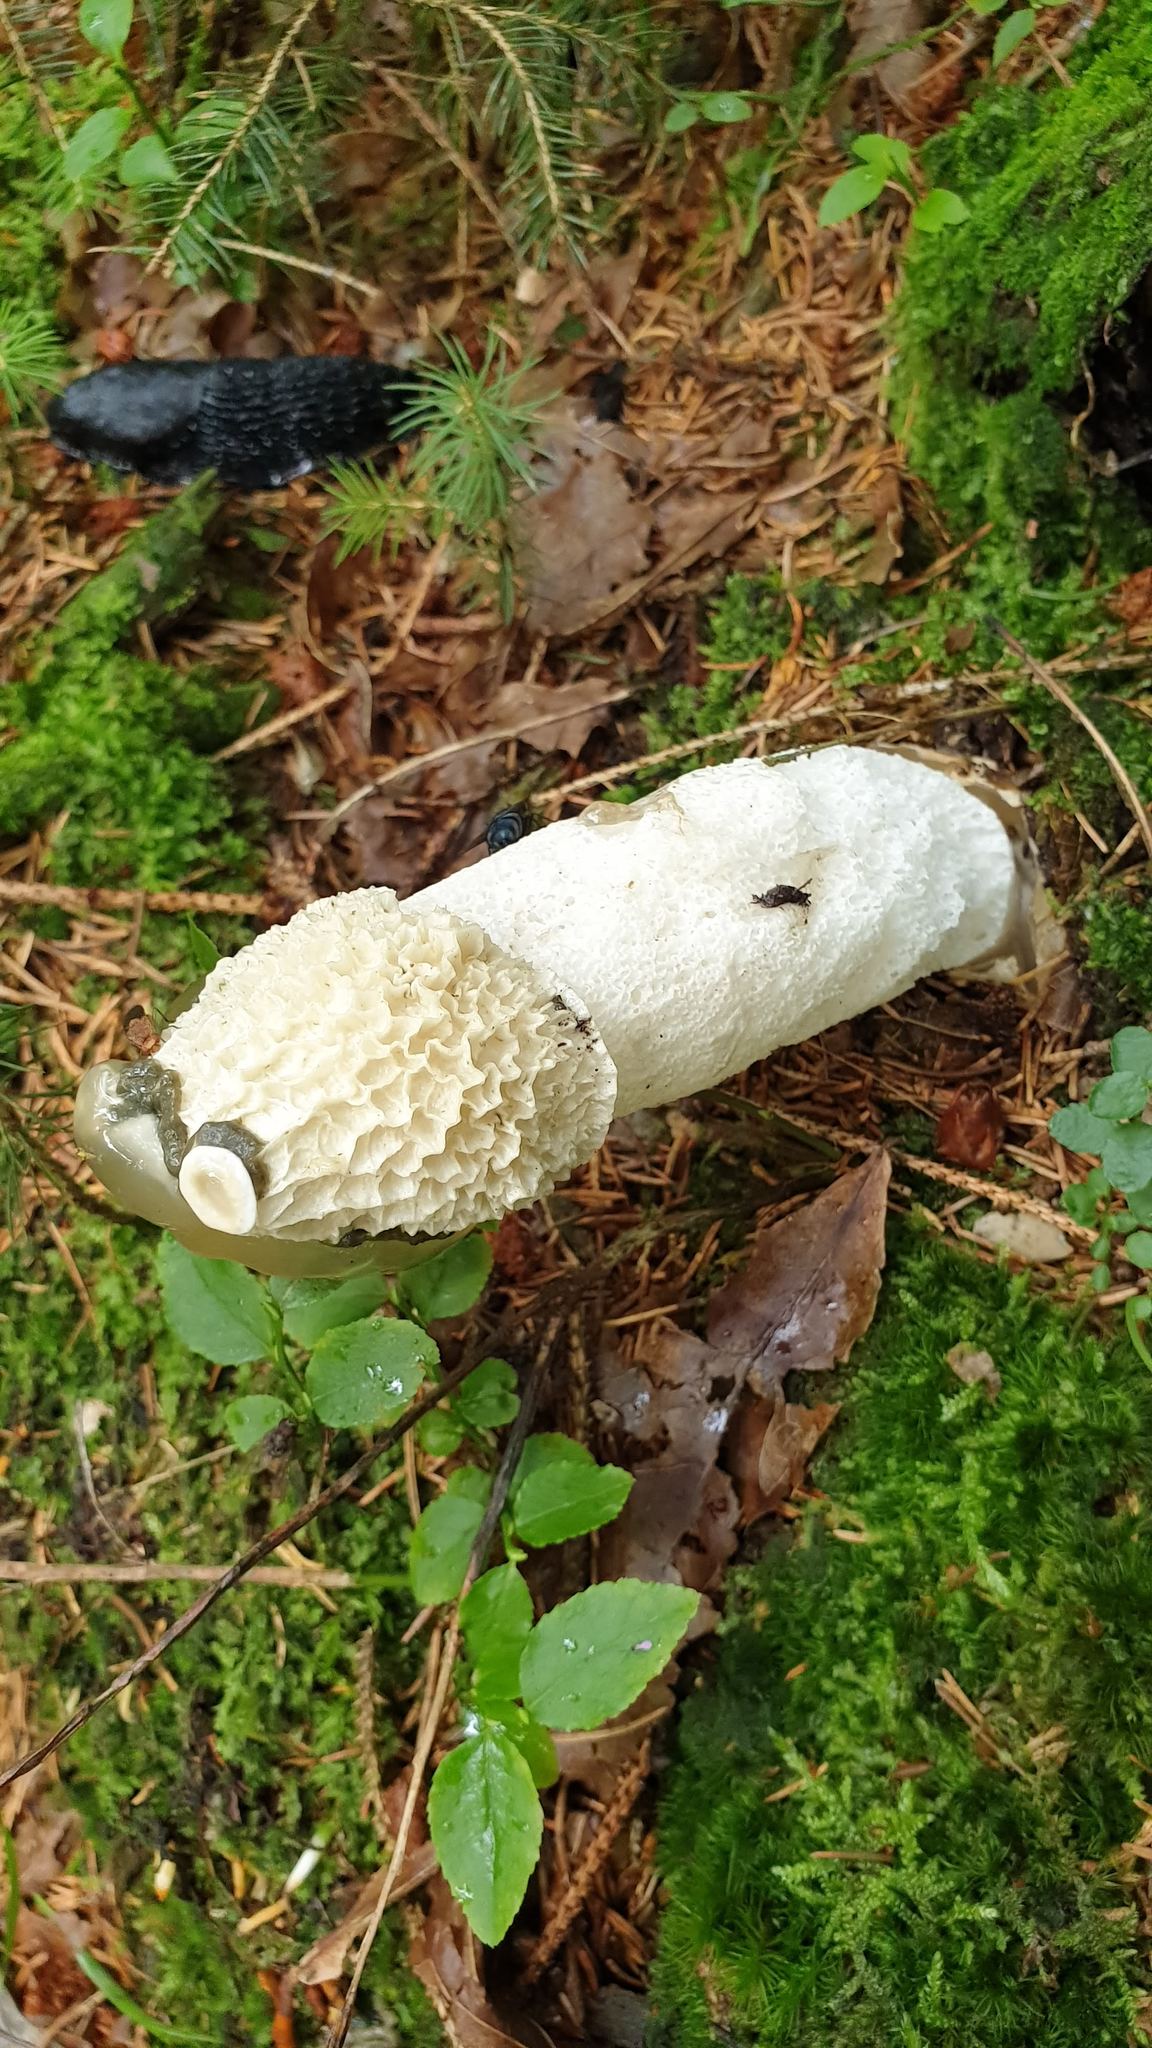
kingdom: Fungi
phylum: Basidiomycota
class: Agaricomycetes
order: Phallales
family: Phallaceae
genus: Phallus
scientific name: Phallus impudicus
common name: Common stinkhorn
